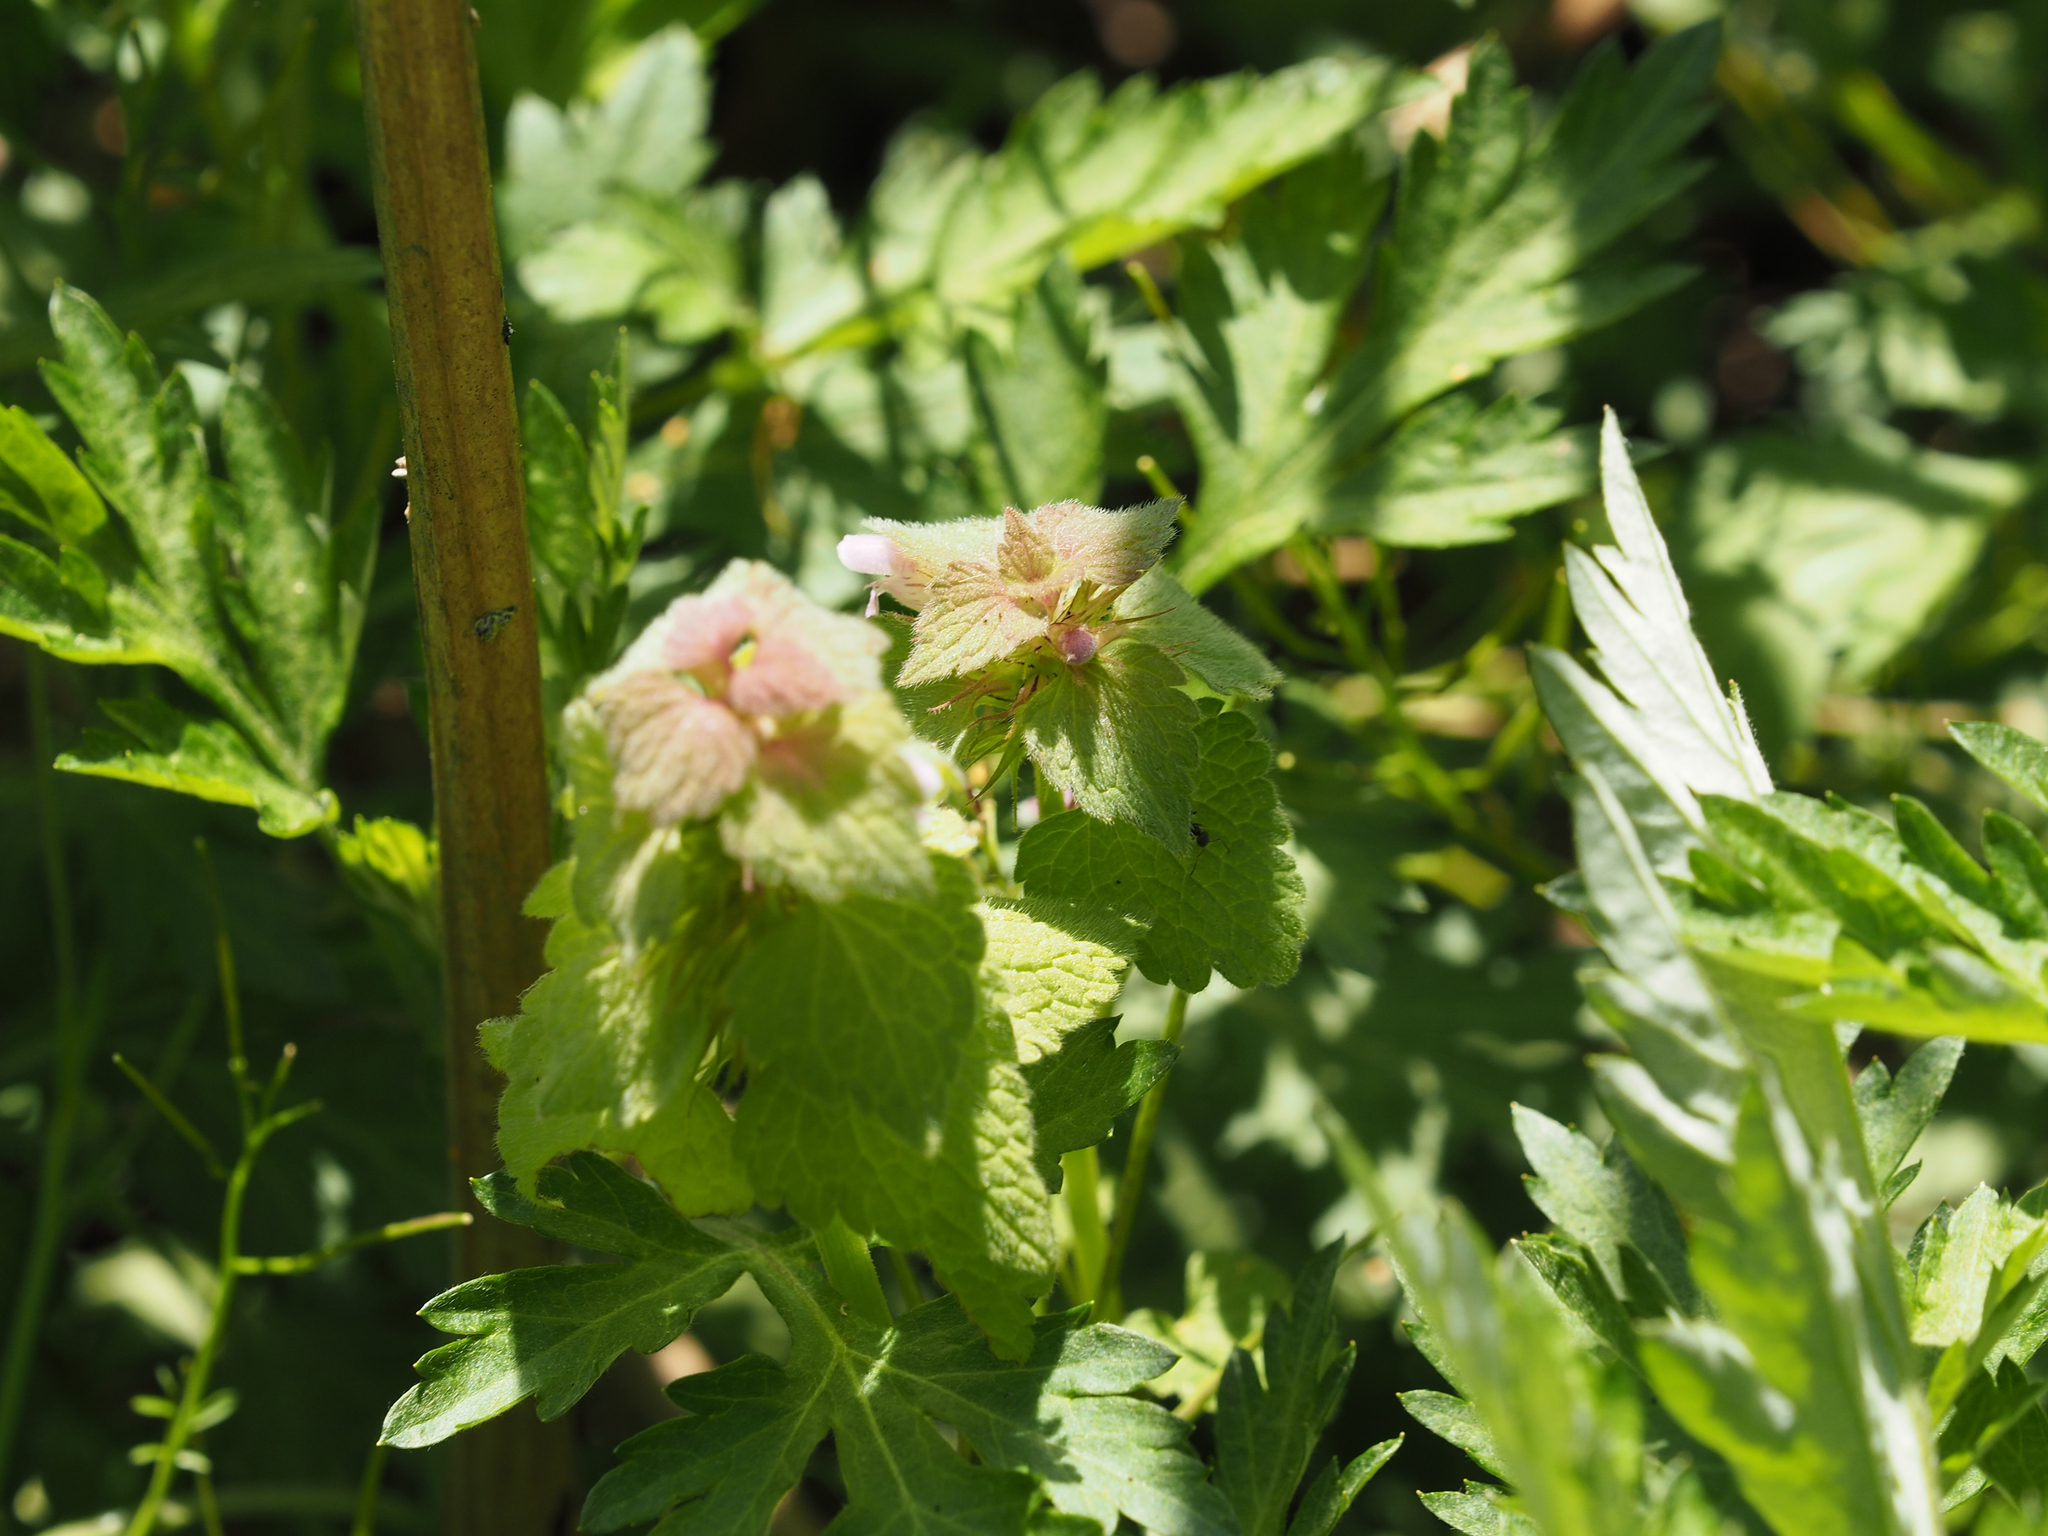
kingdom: Plantae
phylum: Tracheophyta
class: Magnoliopsida
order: Lamiales
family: Lamiaceae
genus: Lamium
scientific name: Lamium purpureum
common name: Red dead-nettle
